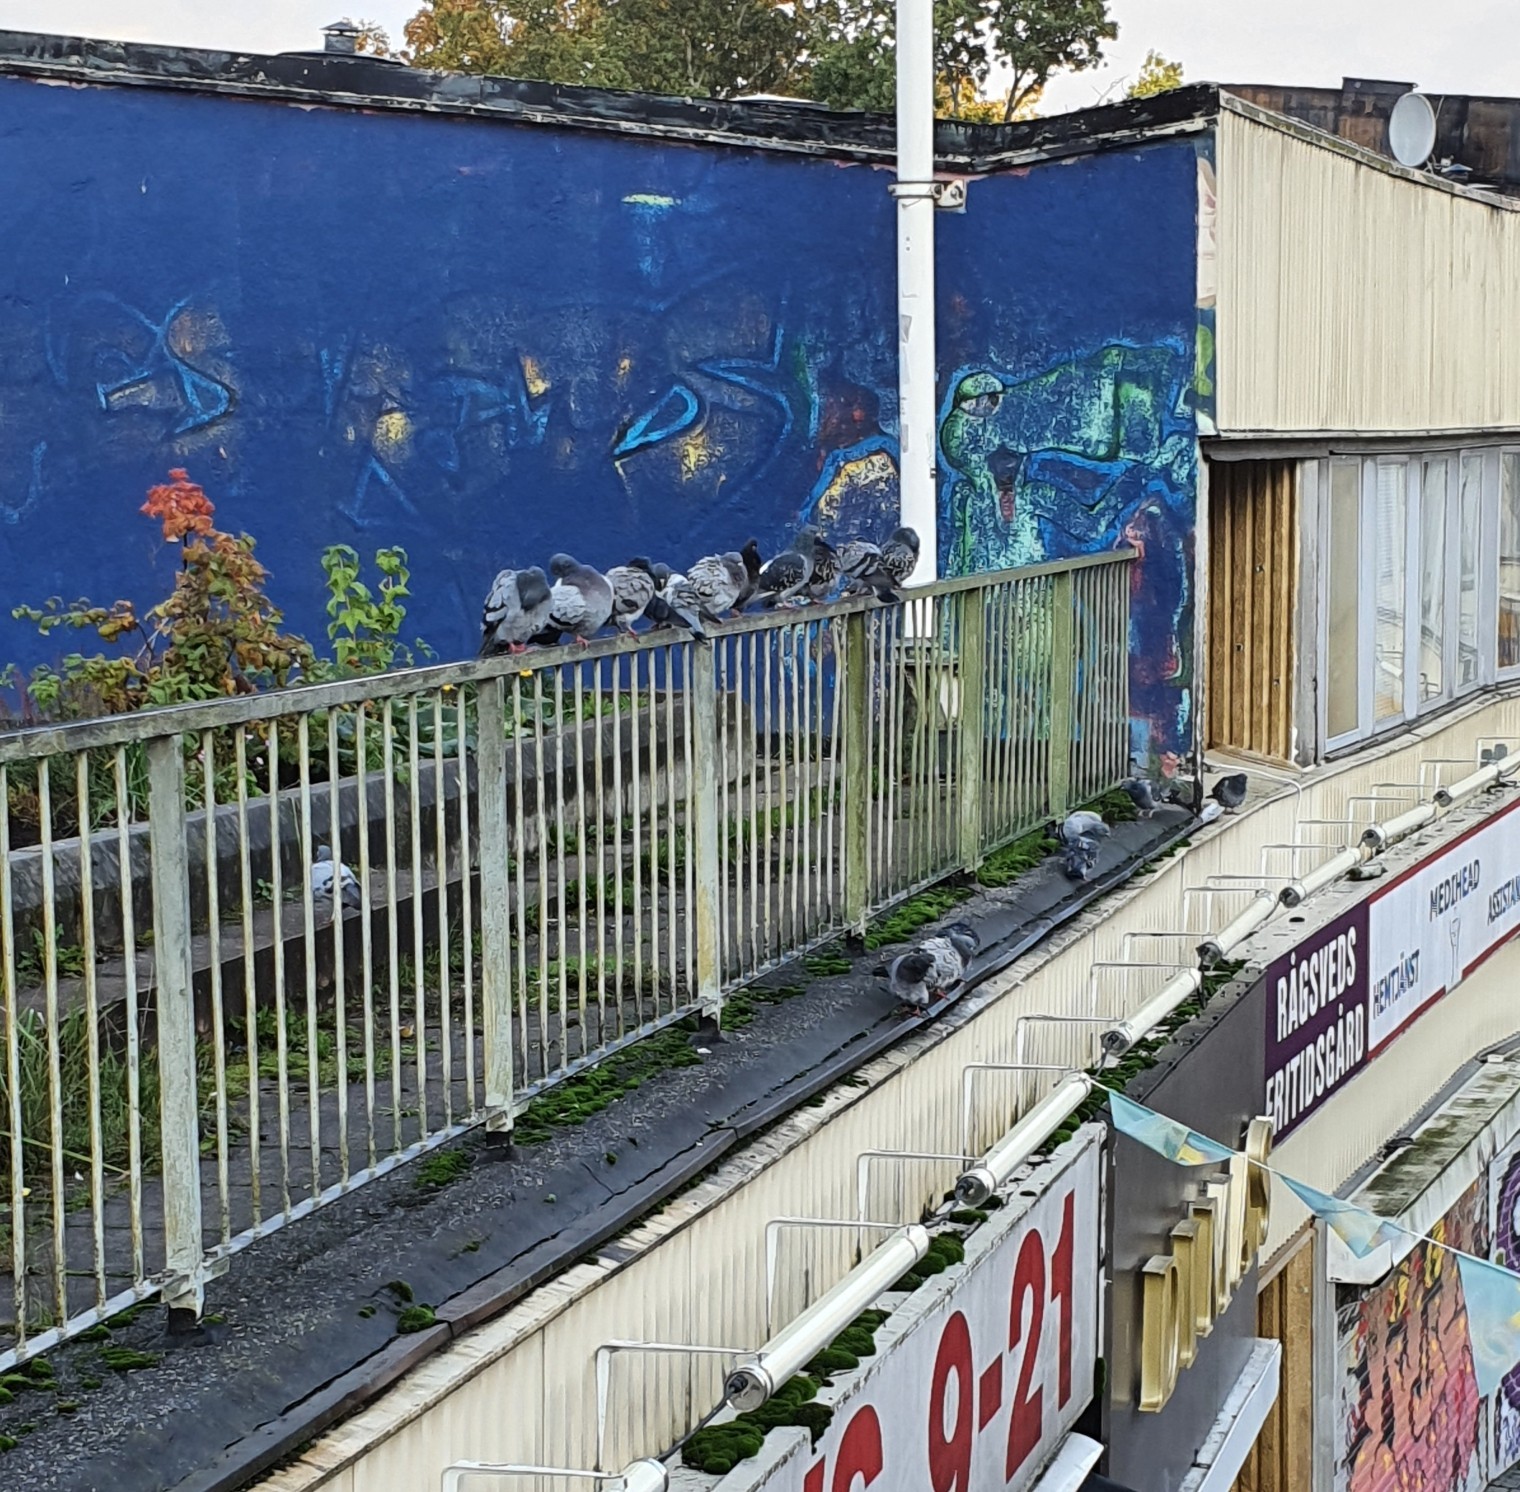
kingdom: Animalia
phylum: Chordata
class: Aves
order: Columbiformes
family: Columbidae
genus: Columba
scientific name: Columba livia
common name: Rock pigeon
